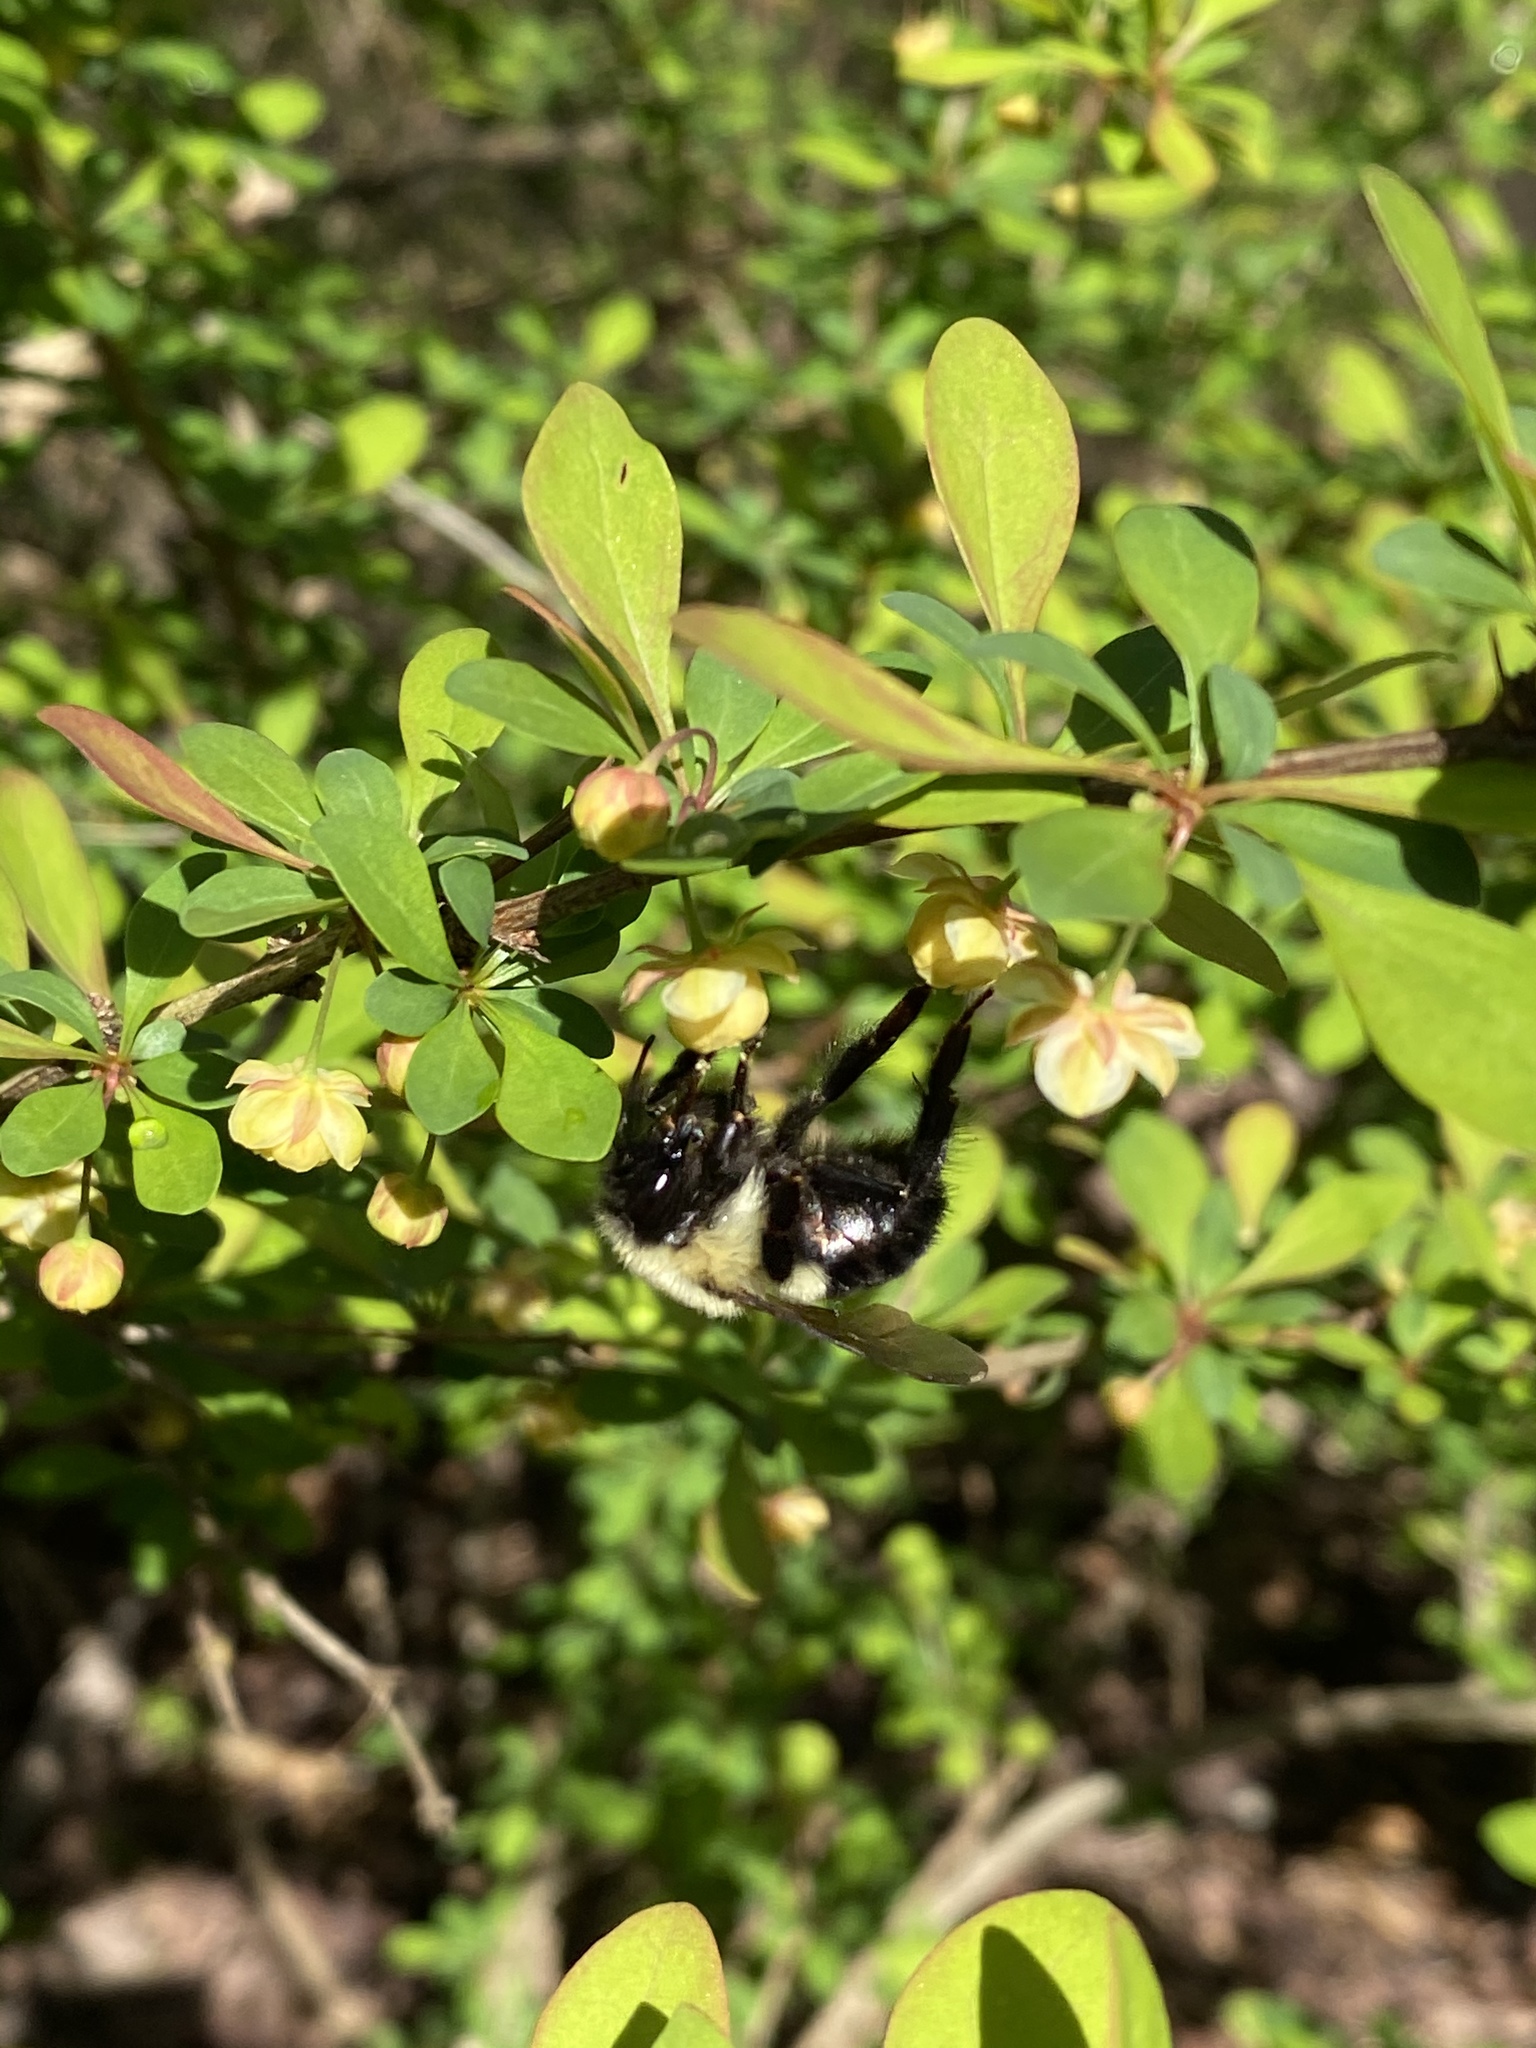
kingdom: Animalia
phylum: Arthropoda
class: Insecta
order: Hymenoptera
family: Apidae
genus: Bombus
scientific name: Bombus impatiens
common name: Common eastern bumble bee
